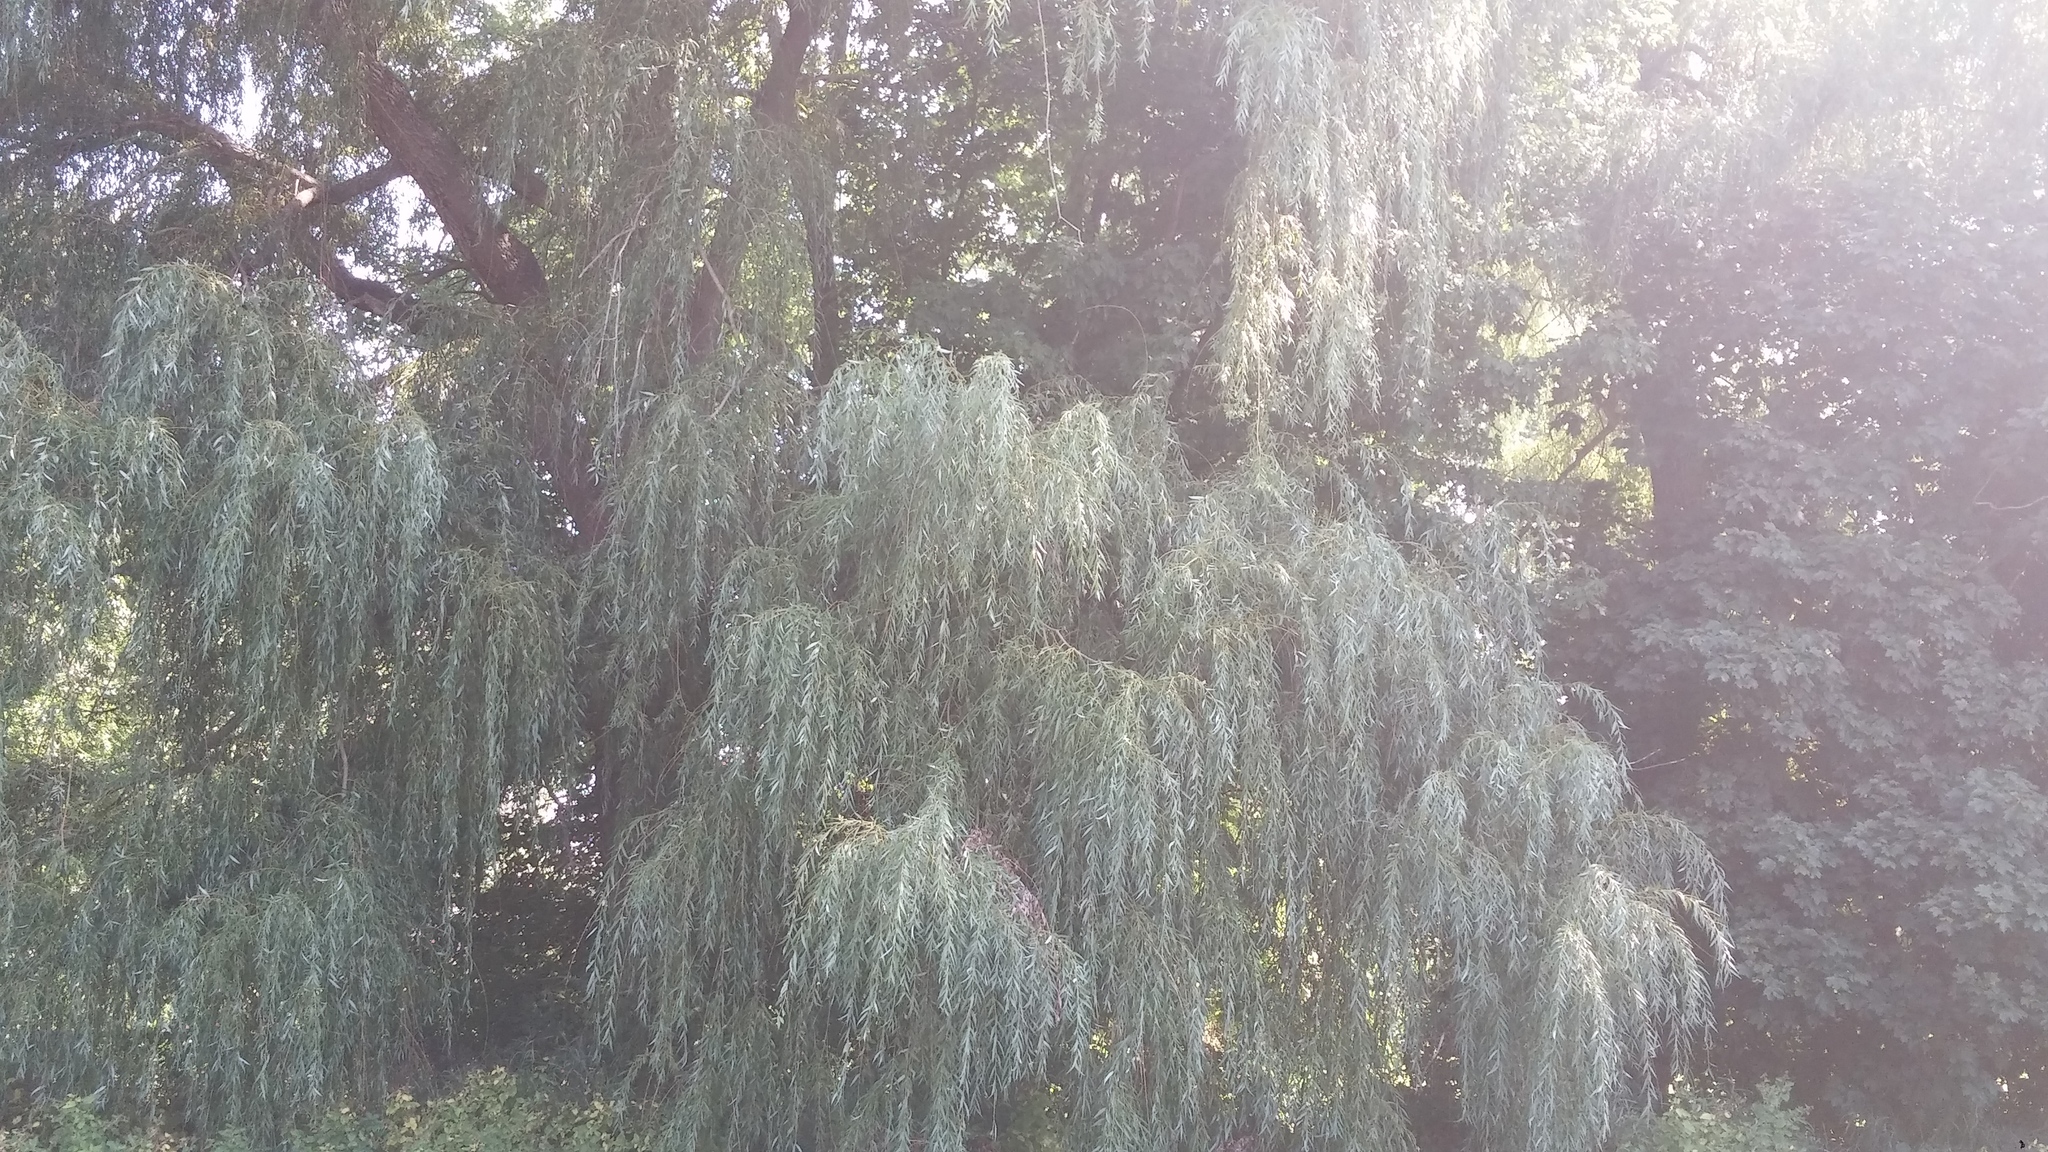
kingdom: Plantae
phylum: Tracheophyta
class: Magnoliopsida
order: Malpighiales
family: Salicaceae
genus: Salix
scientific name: Salix pendulina
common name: Wisconsin weeping willow
